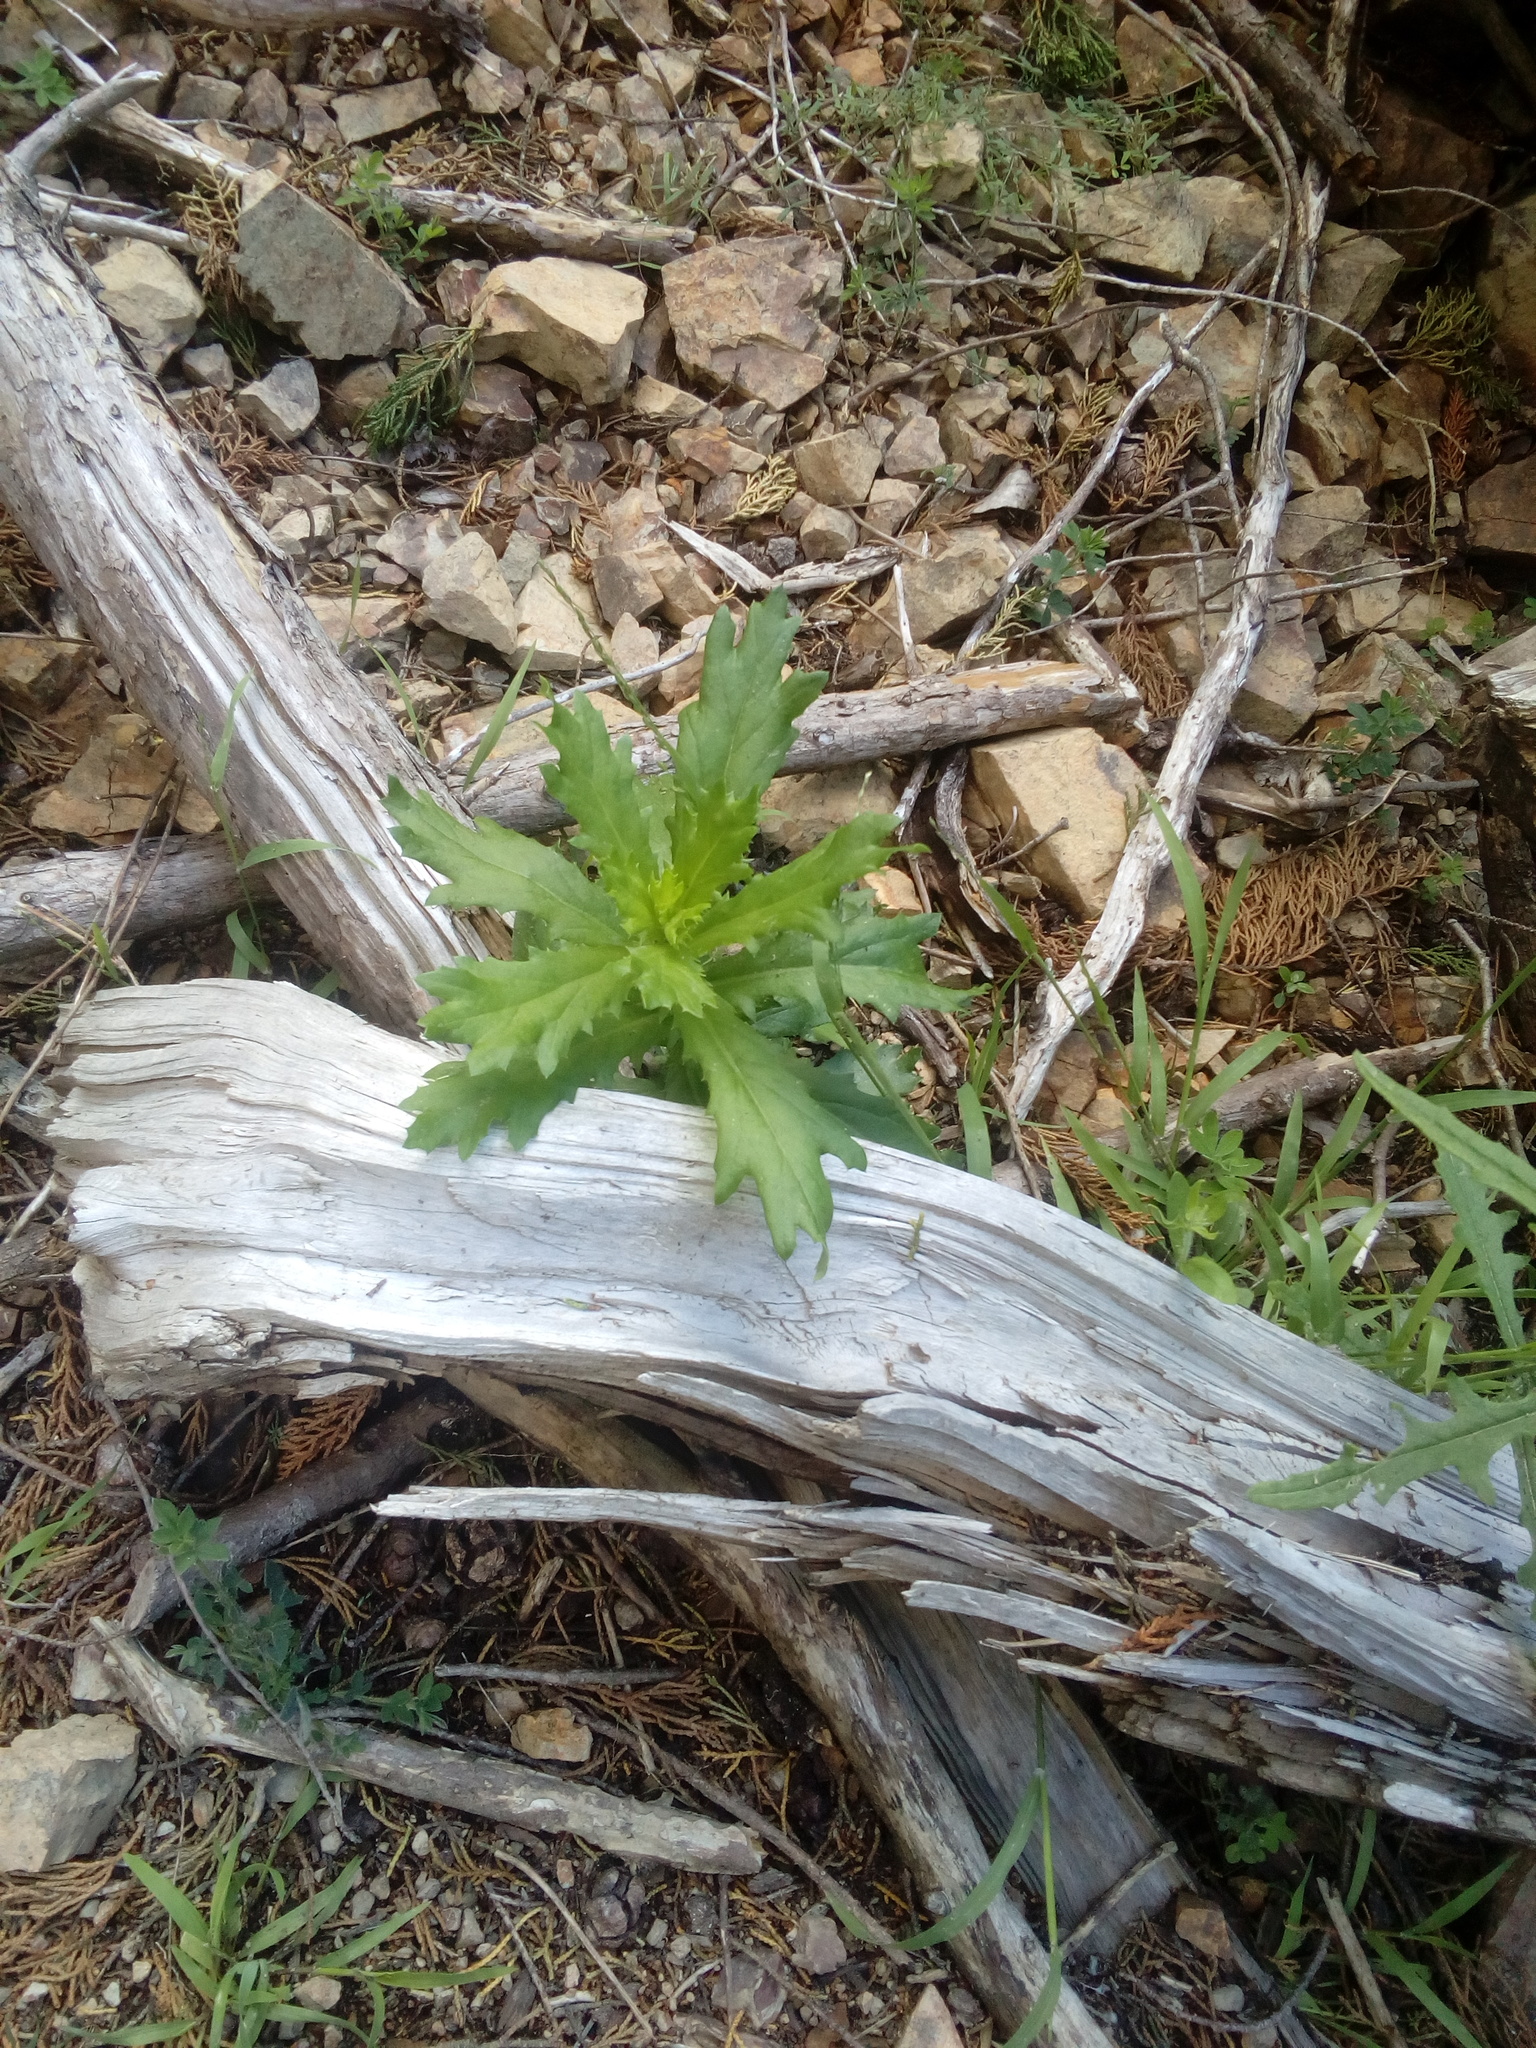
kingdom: Plantae
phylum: Tracheophyta
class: Magnoliopsida
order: Asterales
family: Asteraceae
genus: Senecio
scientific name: Senecio glastifolius
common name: Woad-leaved ragwort
